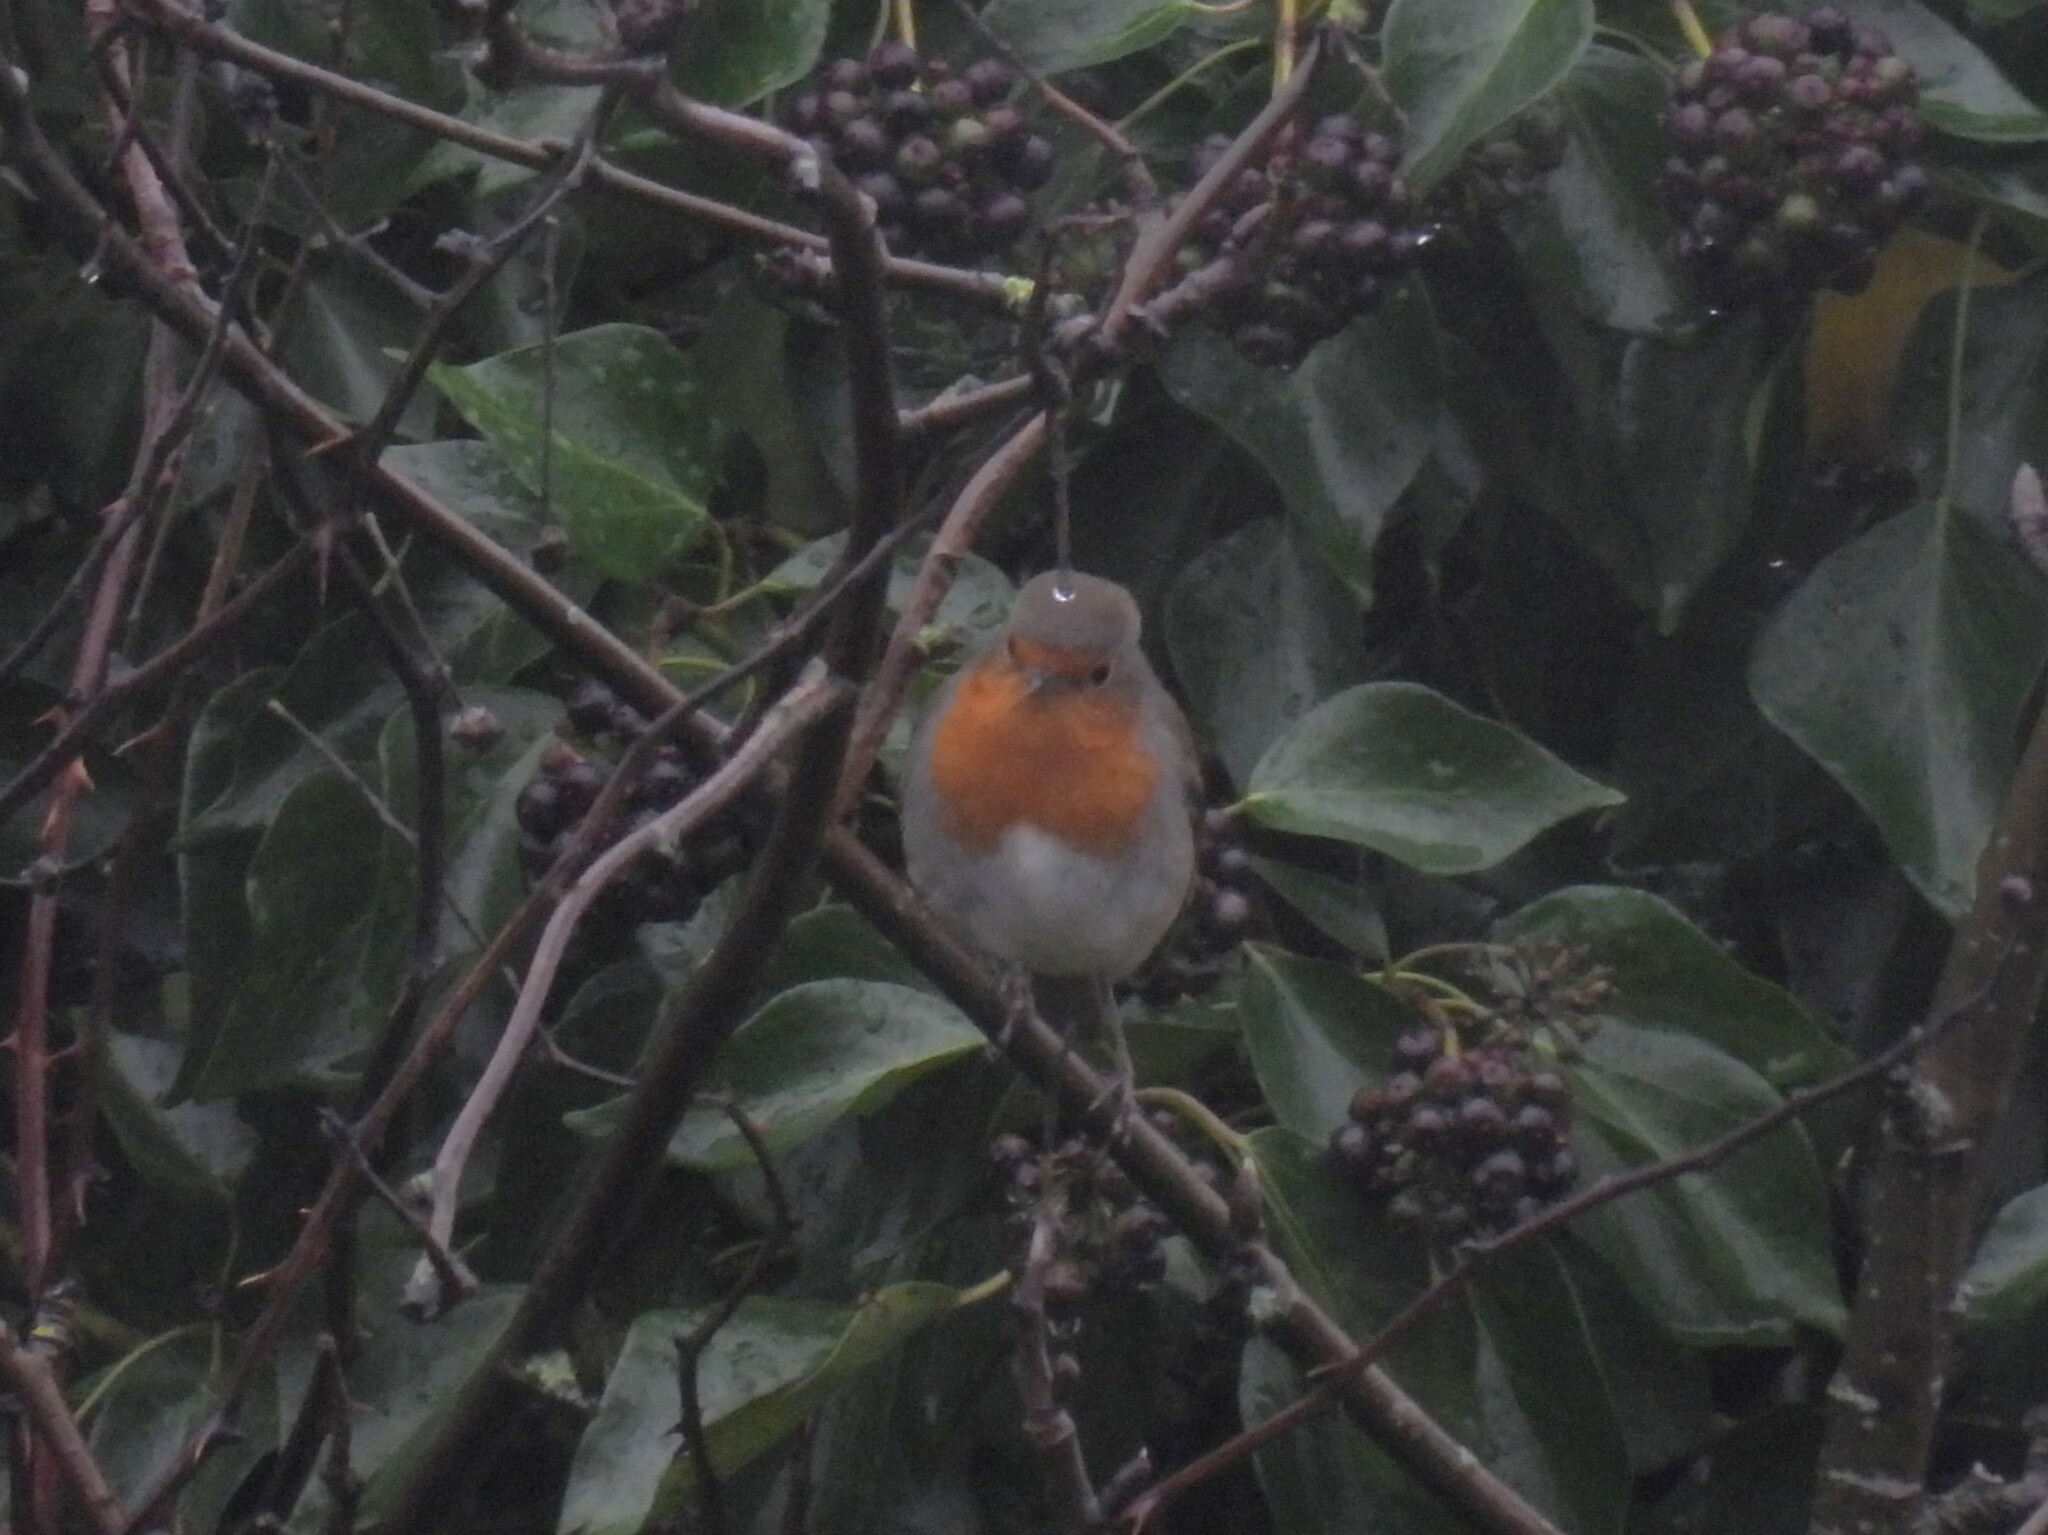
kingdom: Animalia
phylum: Chordata
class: Aves
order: Passeriformes
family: Muscicapidae
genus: Erithacus
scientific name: Erithacus rubecula
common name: European robin
